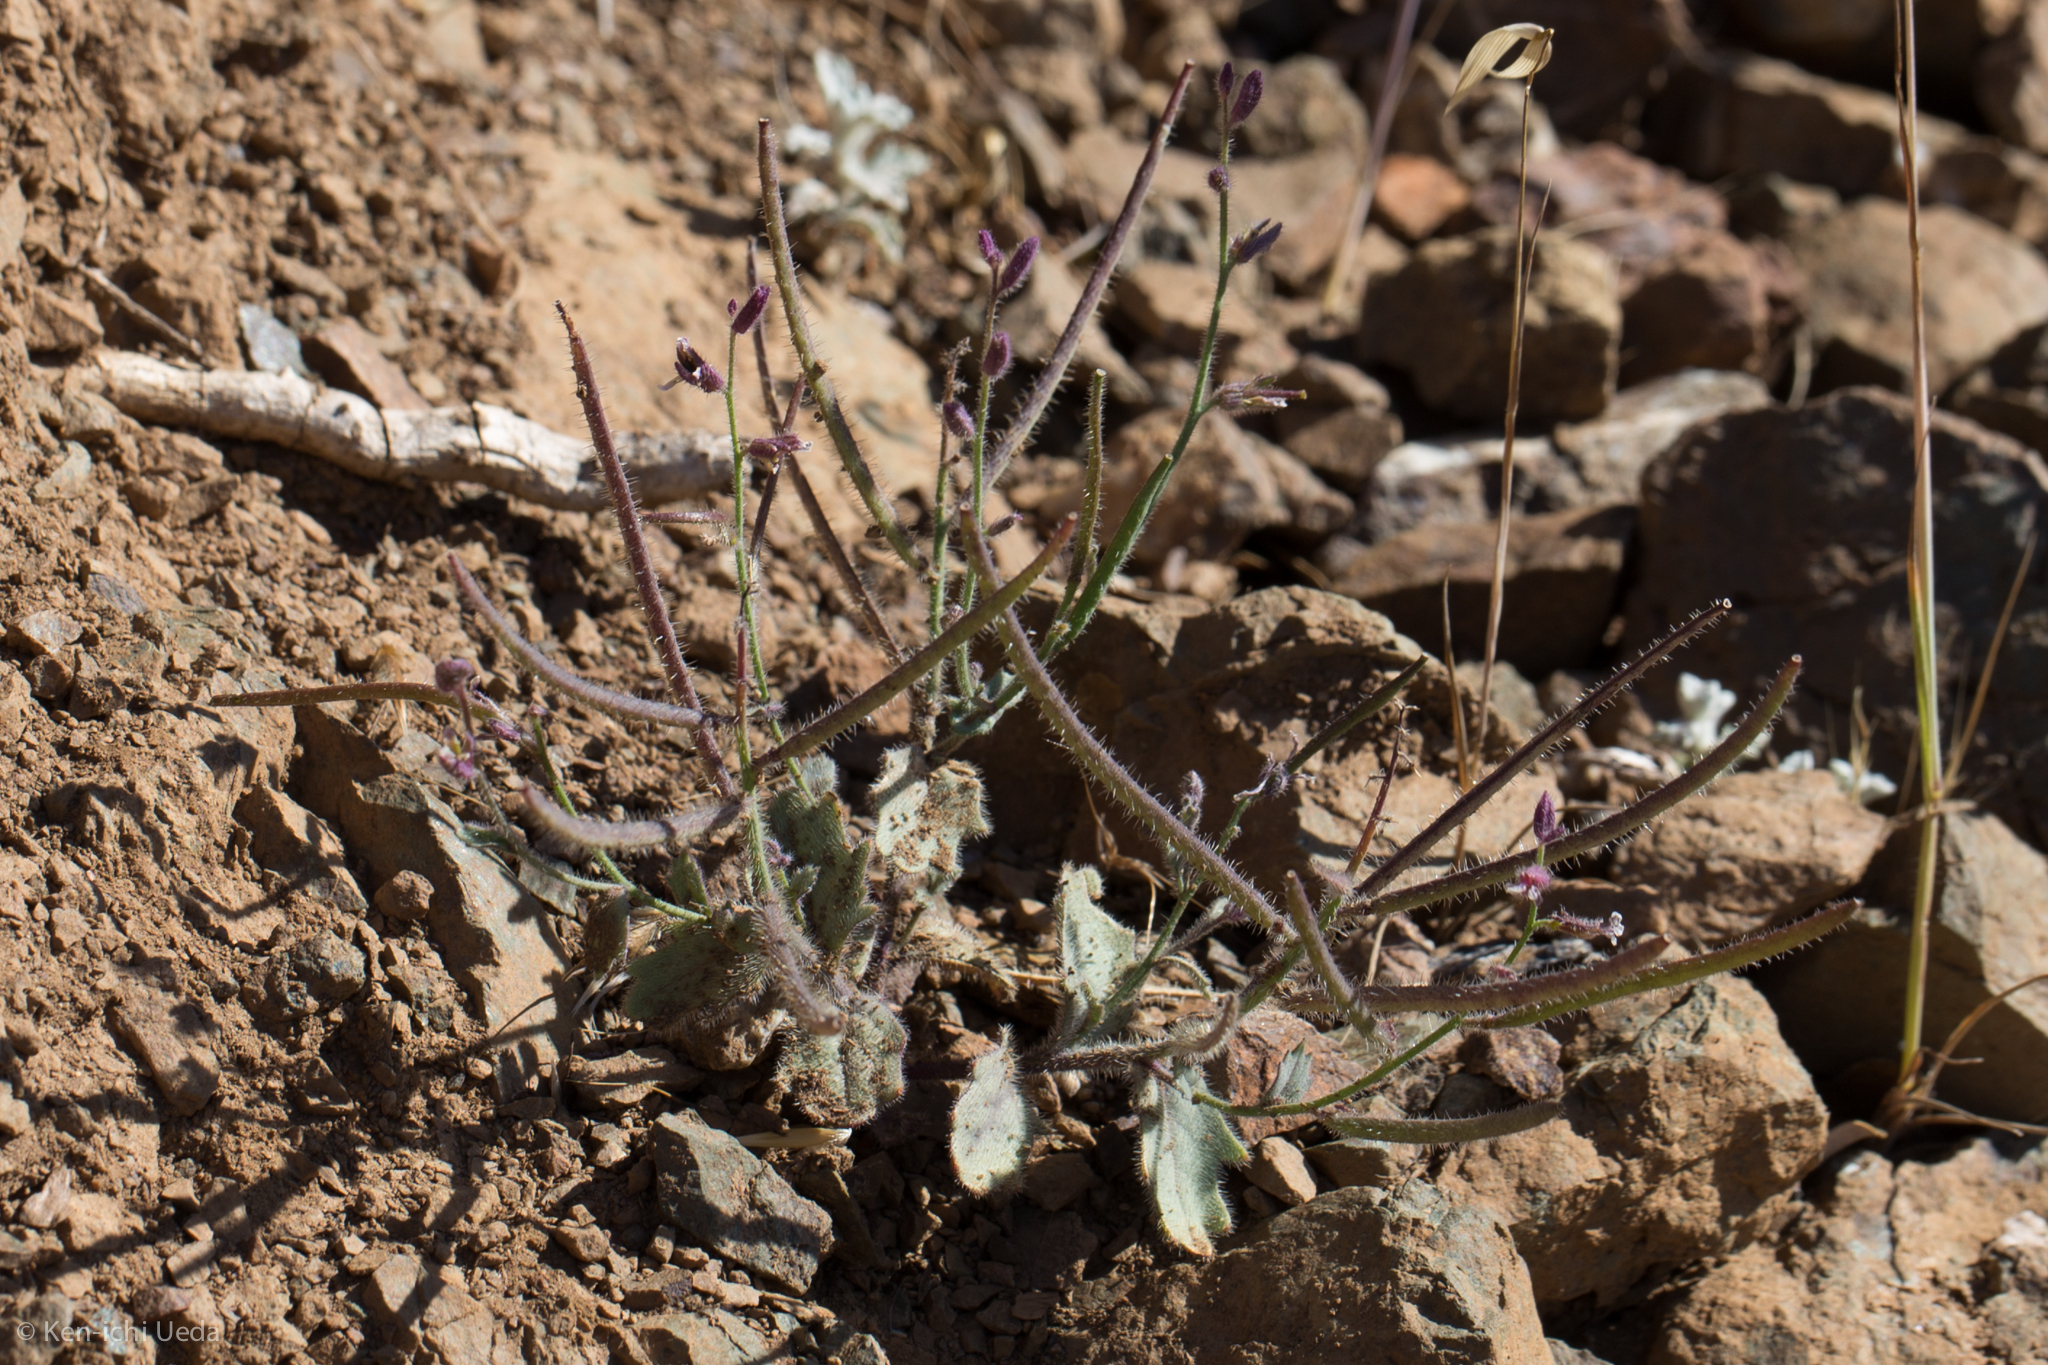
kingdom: Plantae
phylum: Tracheophyta
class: Magnoliopsida
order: Brassicales
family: Brassicaceae
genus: Streptanthus
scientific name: Streptanthus hispidus
